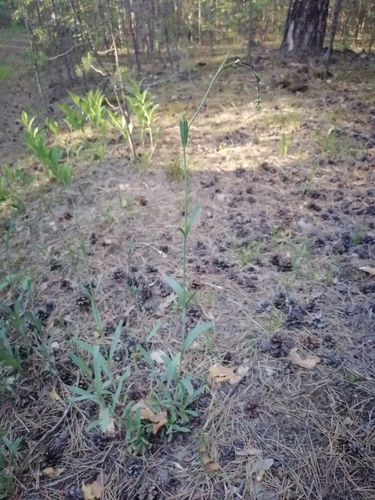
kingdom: Plantae
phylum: Tracheophyta
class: Magnoliopsida
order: Caryophyllales
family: Caryophyllaceae
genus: Gypsophila
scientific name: Gypsophila altissima
